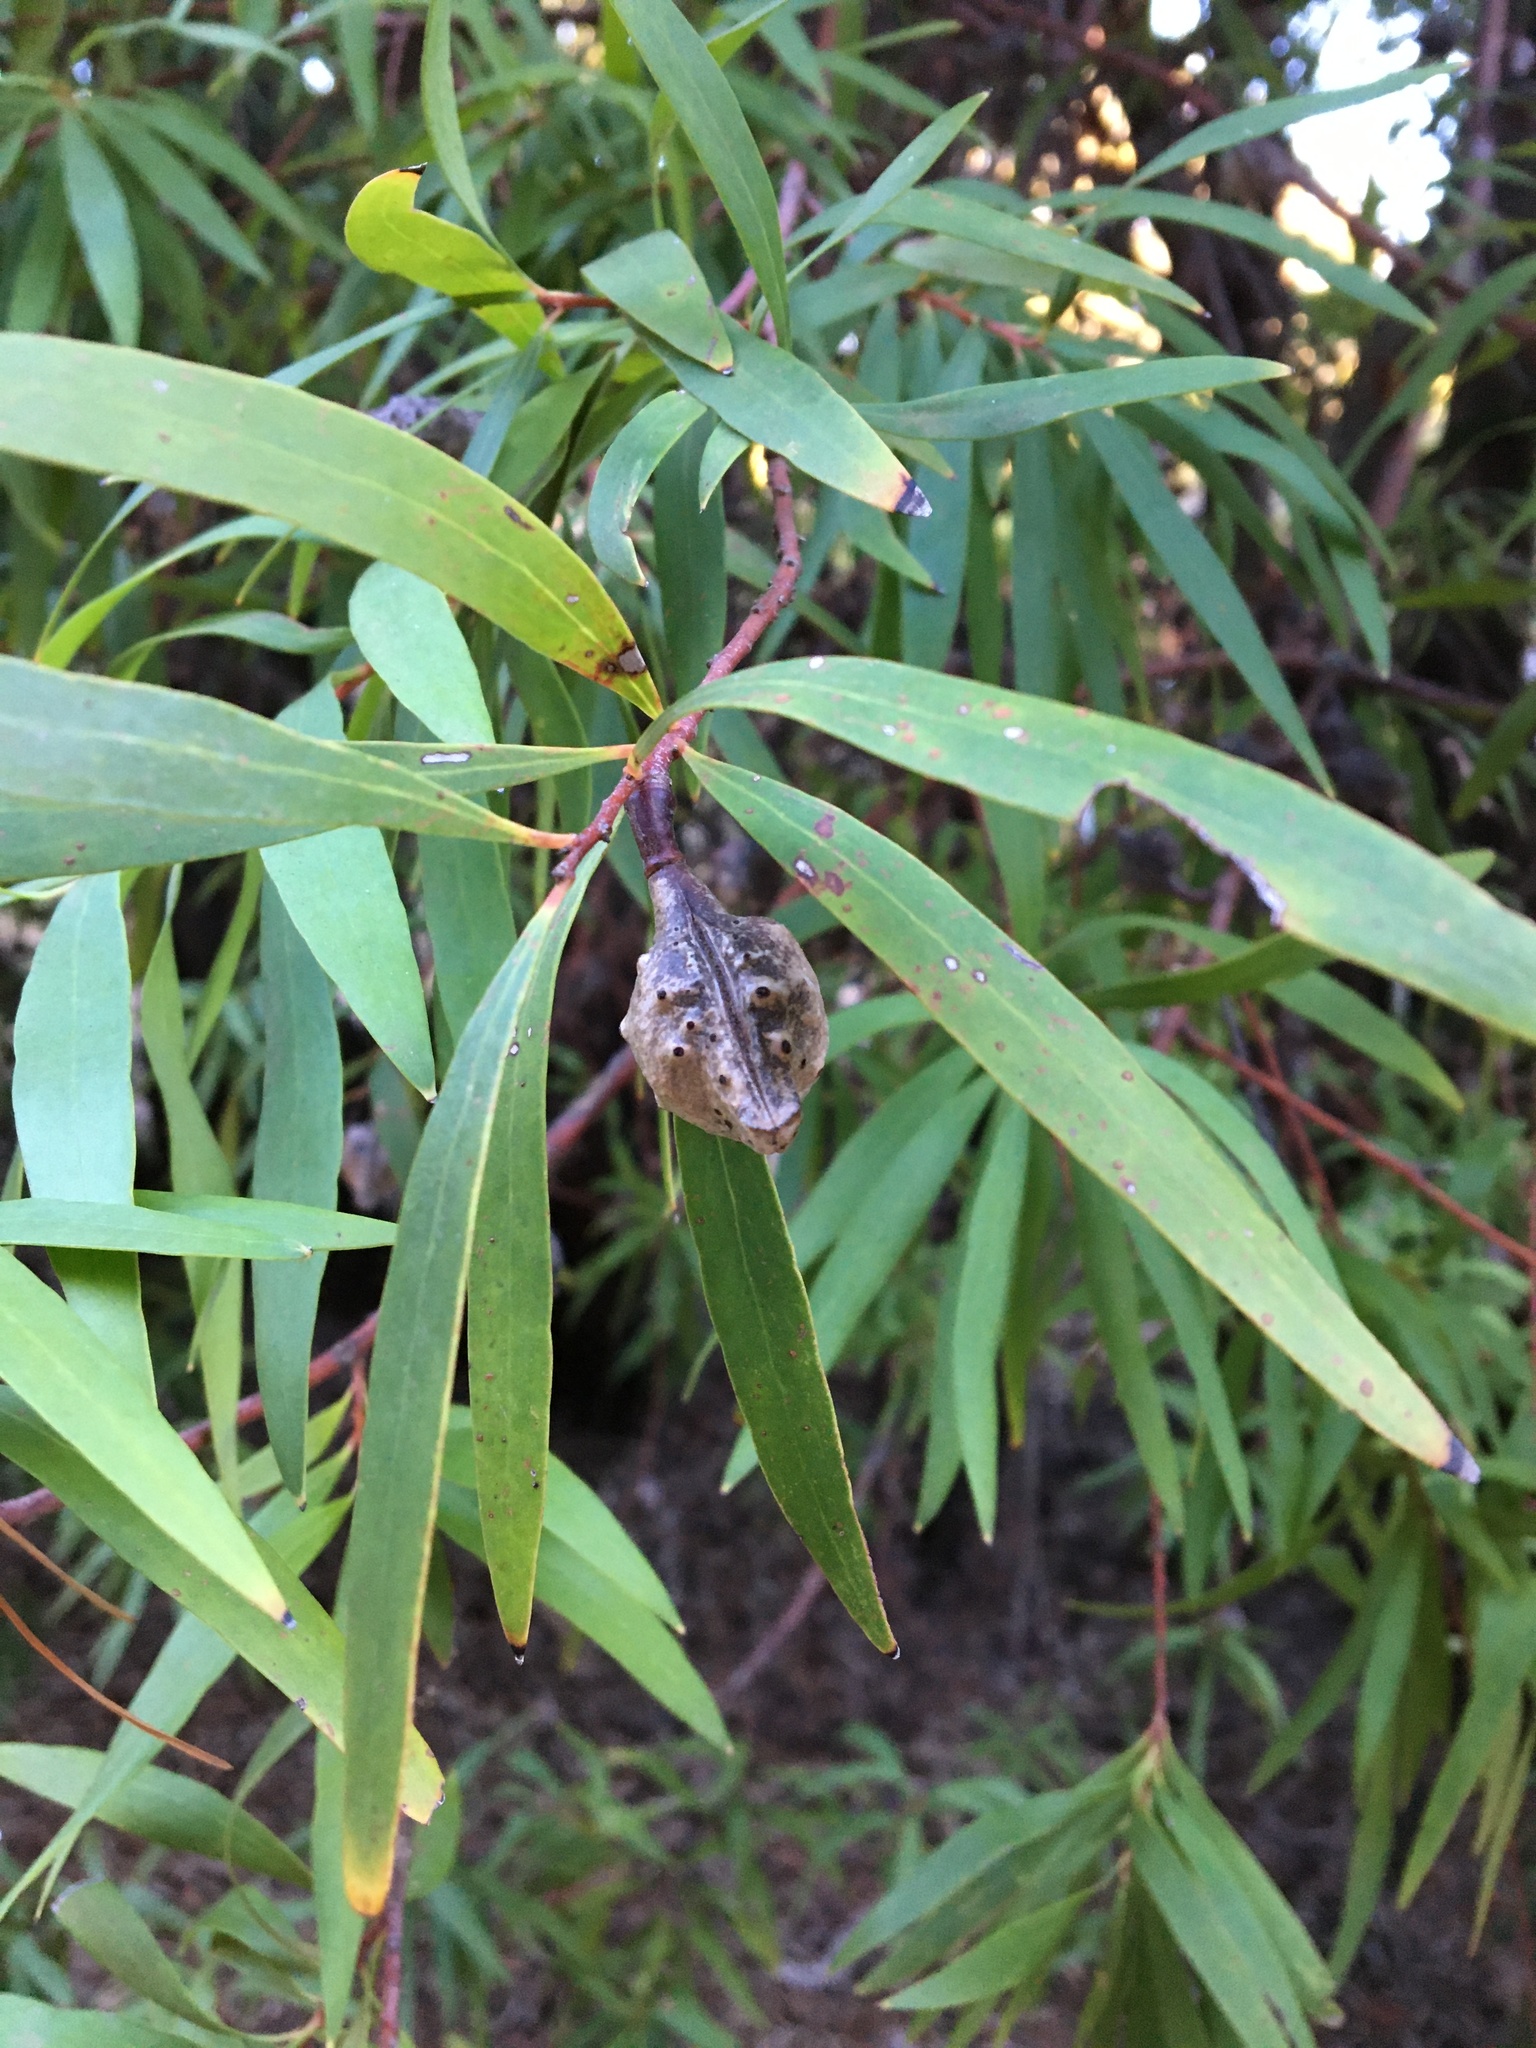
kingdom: Plantae
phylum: Tracheophyta
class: Magnoliopsida
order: Proteales
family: Proteaceae
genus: Hakea
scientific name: Hakea salicifolia
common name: Willow hakea
